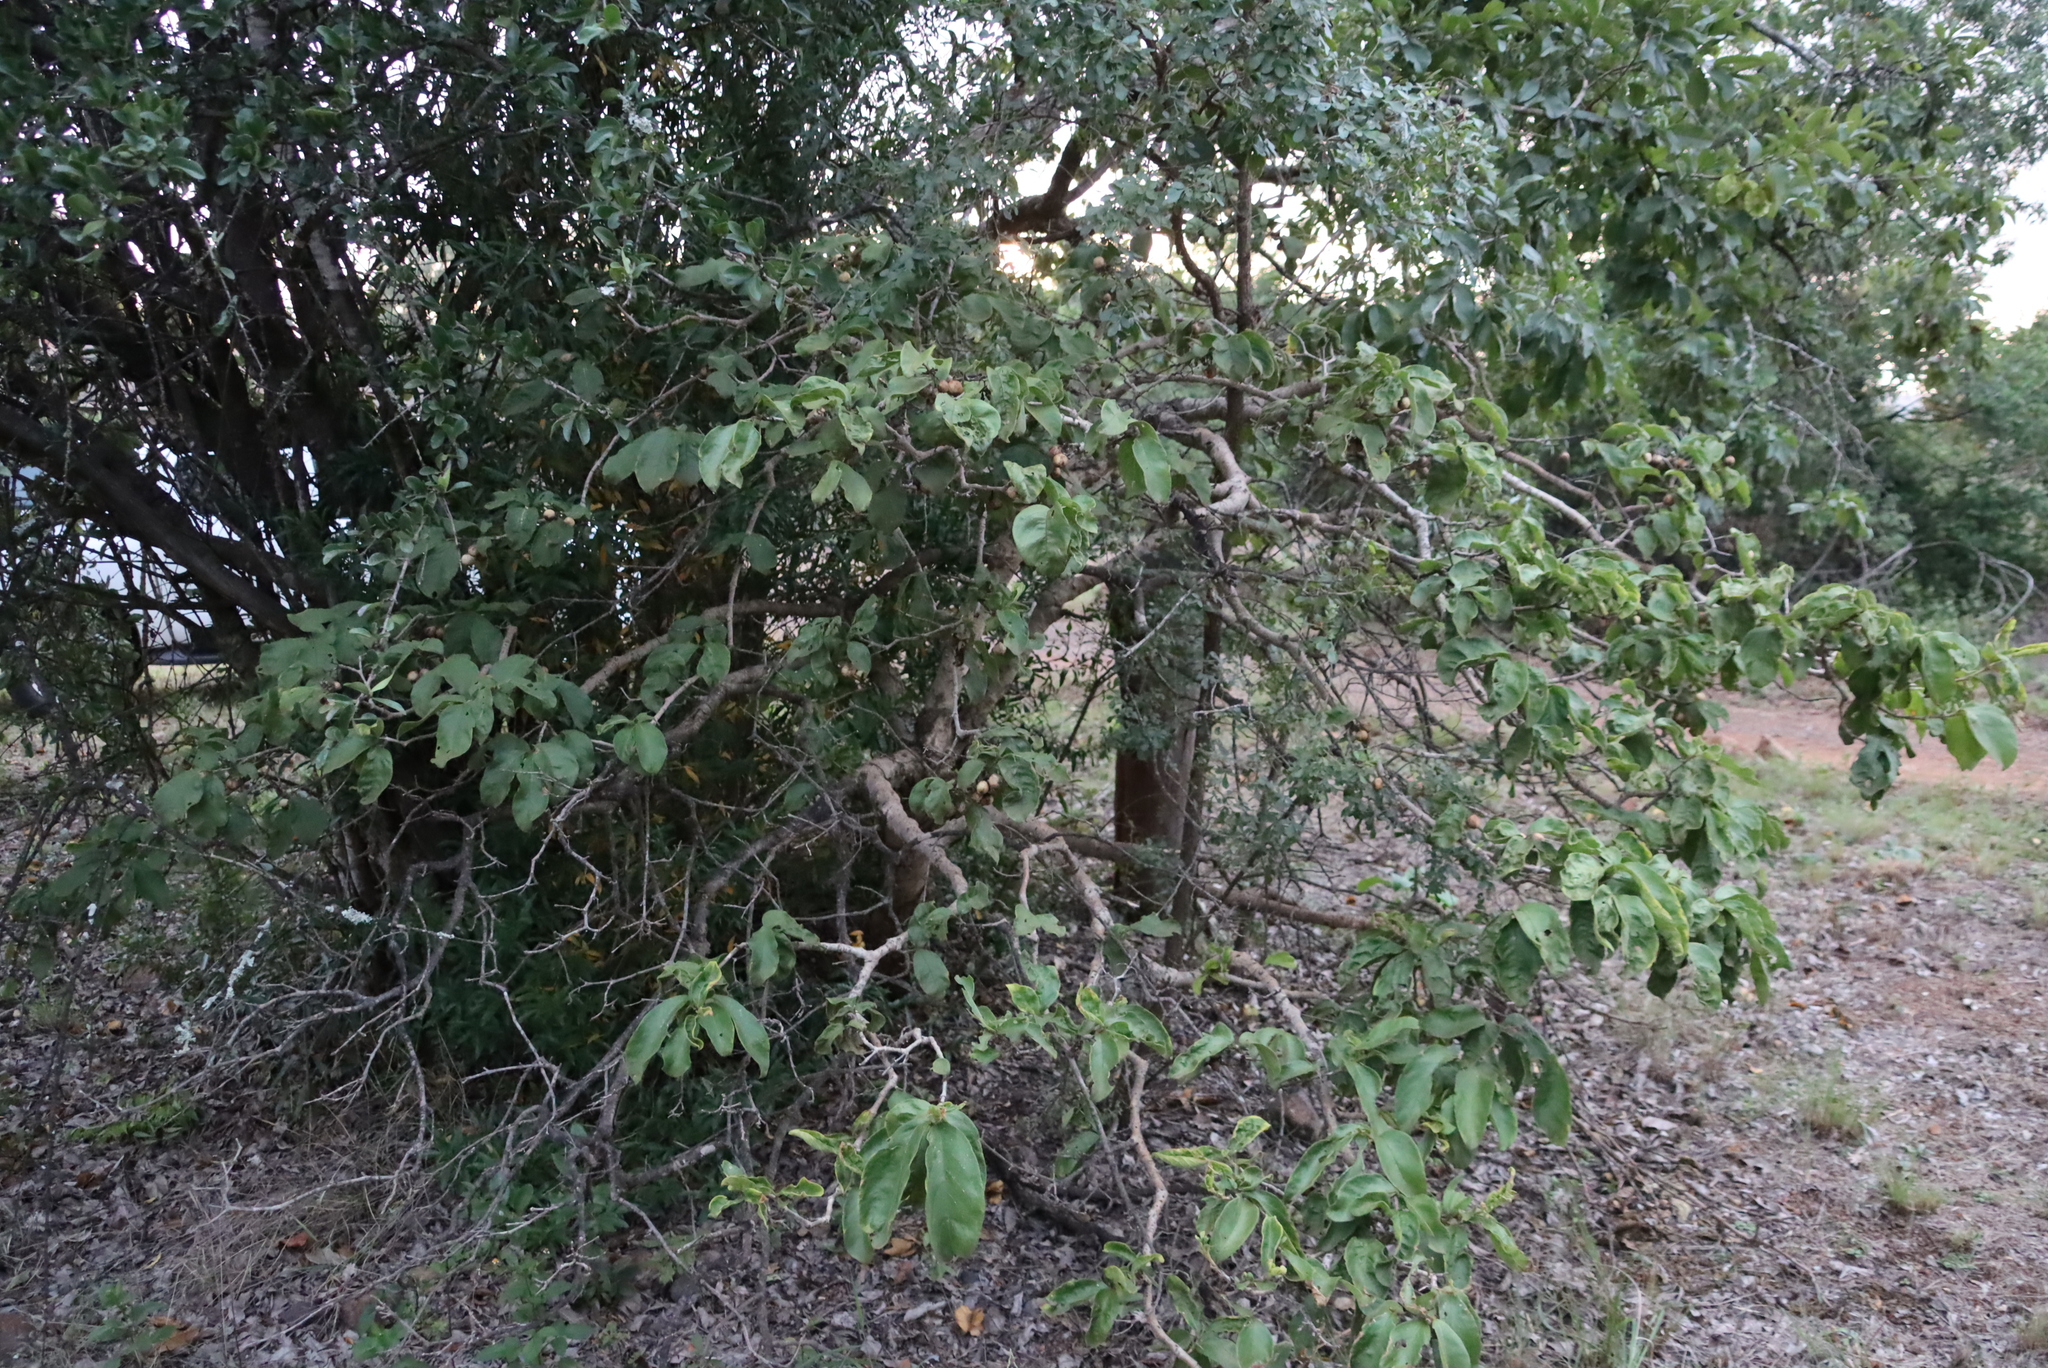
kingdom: Plantae
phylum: Tracheophyta
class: Magnoliopsida
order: Gentianales
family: Rubiaceae
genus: Vangueria
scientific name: Vangueria infausta
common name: Medlar
